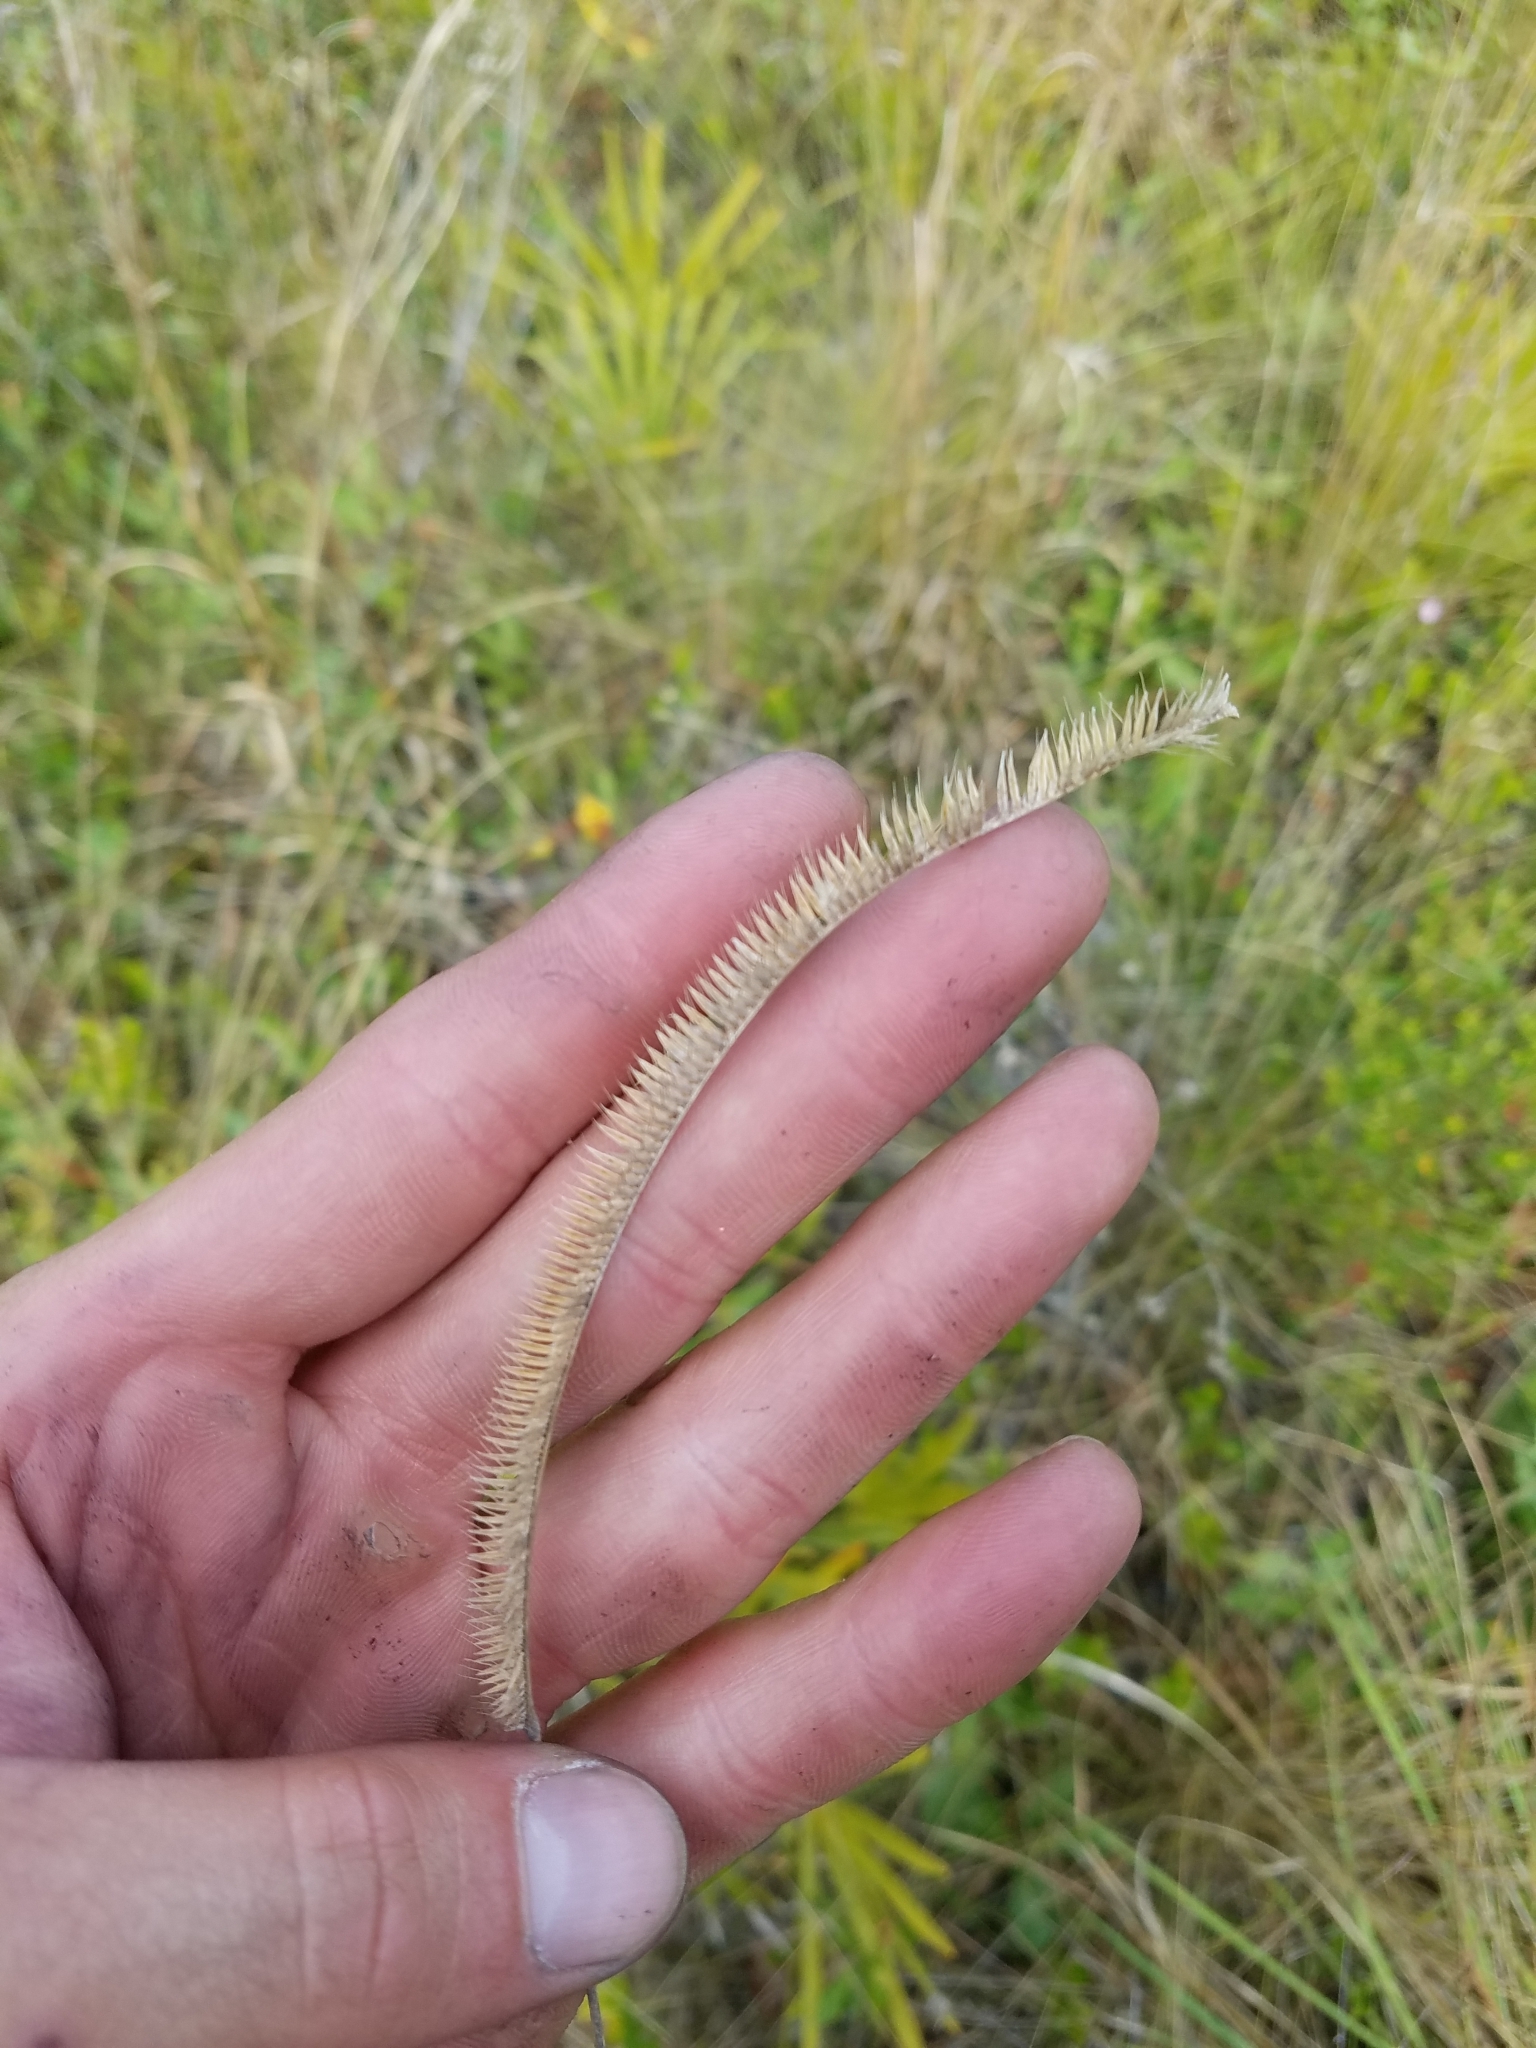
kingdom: Plantae
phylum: Tracheophyta
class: Liliopsida
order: Poales
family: Poaceae
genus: Ctenium
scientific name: Ctenium aromaticum
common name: Toothache grass
